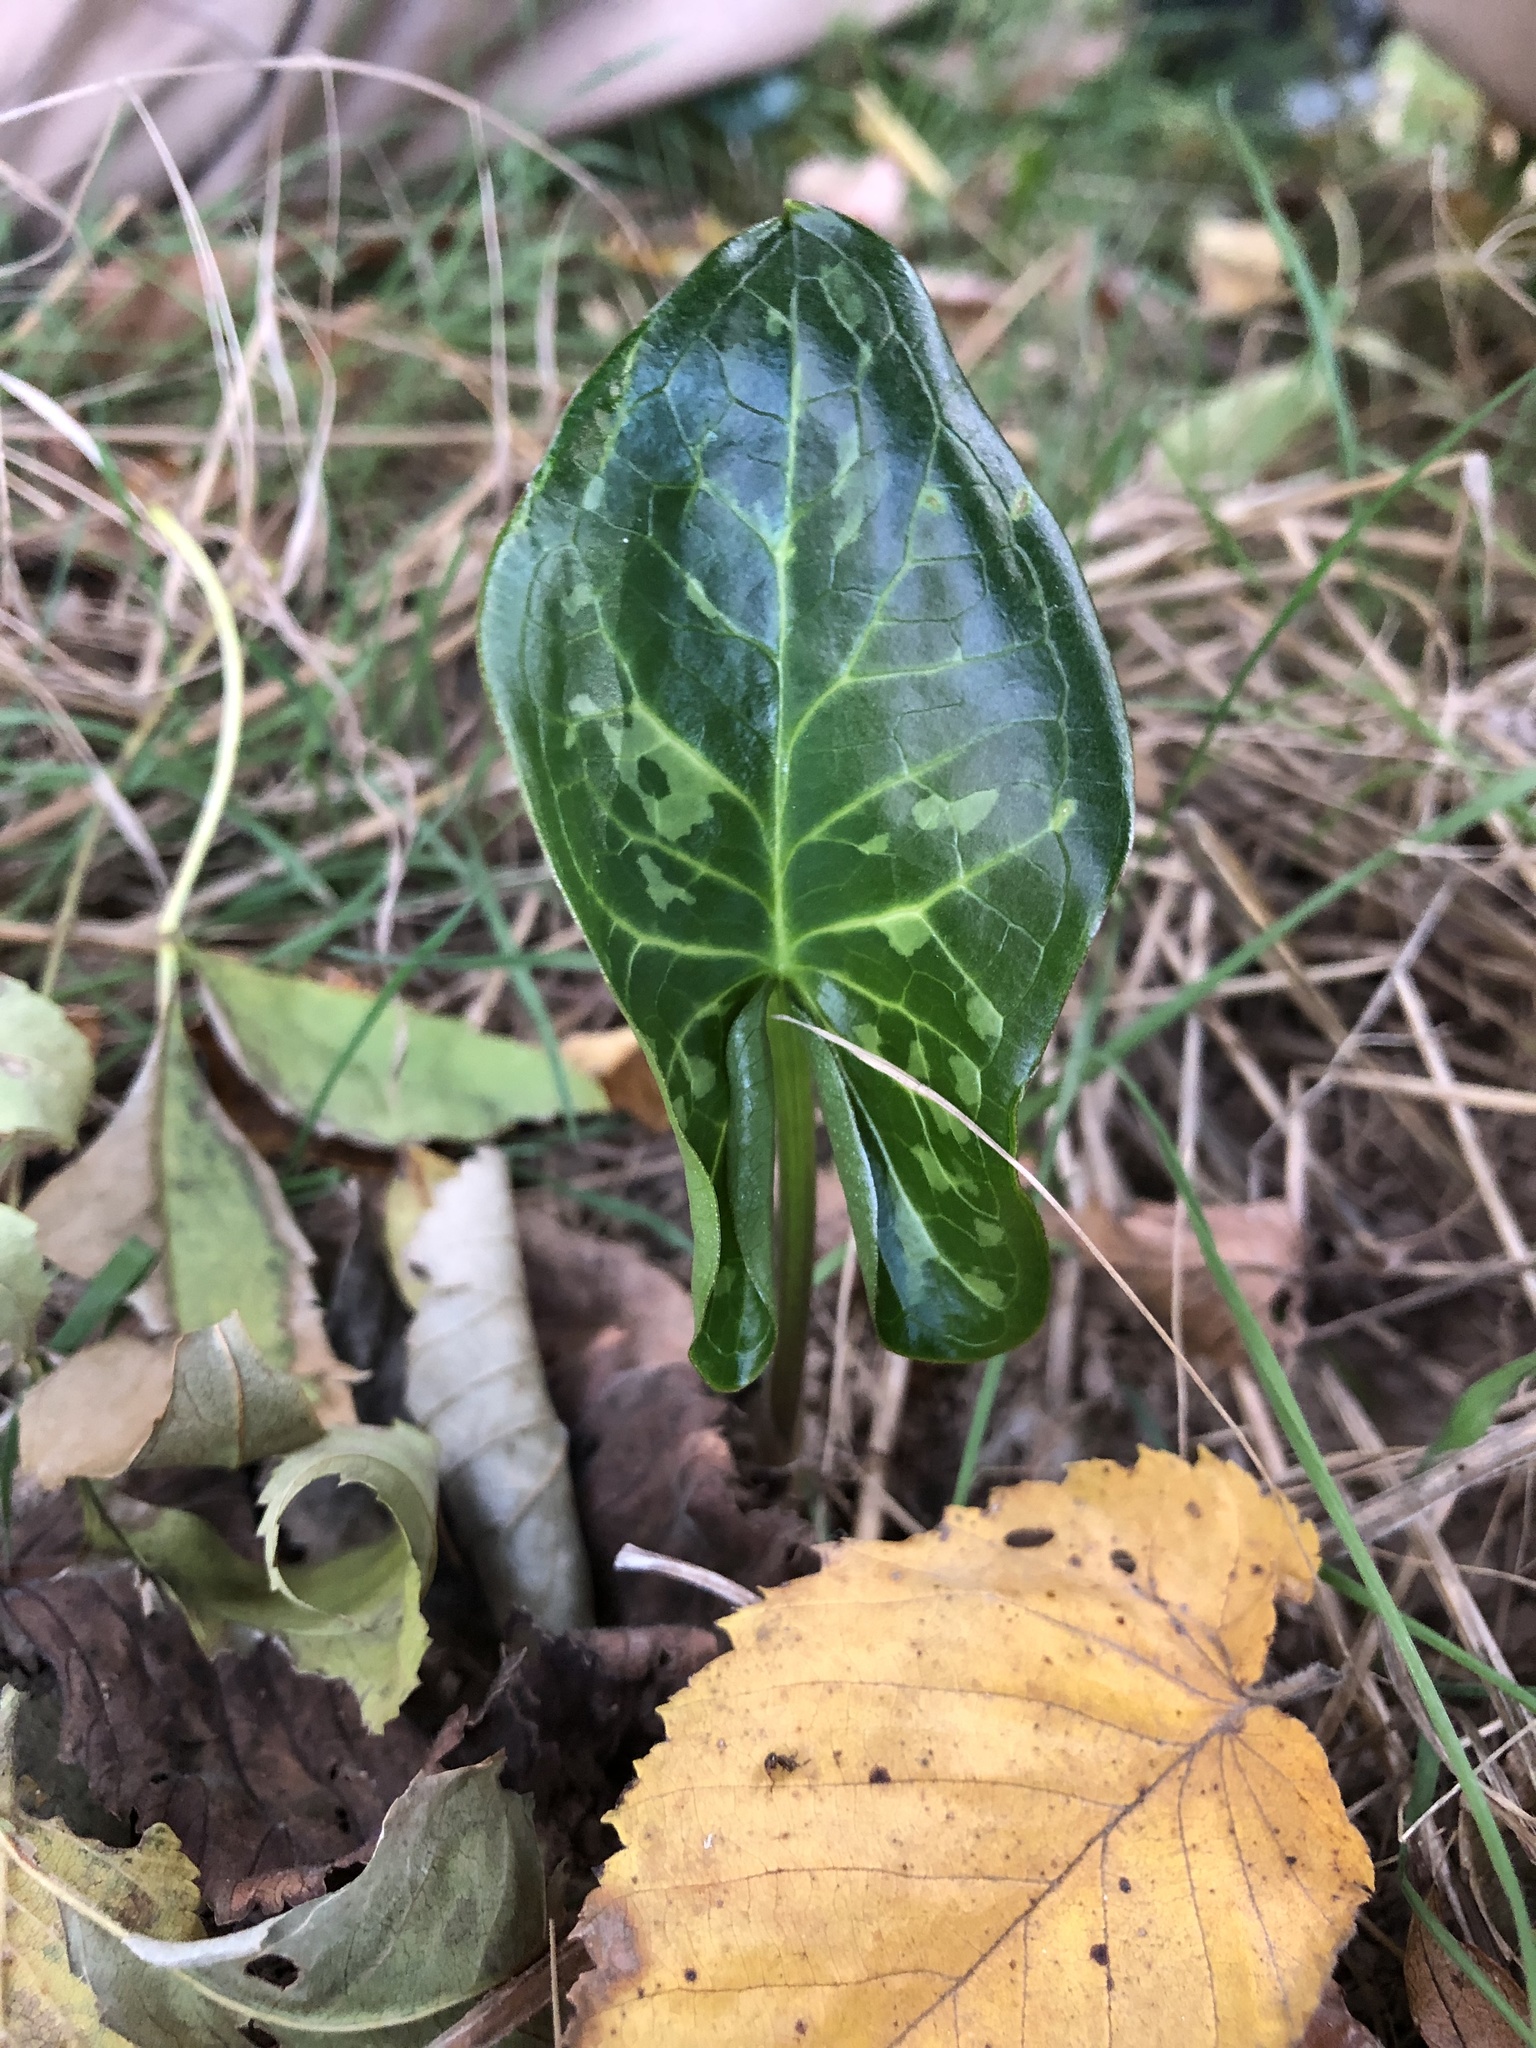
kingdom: Plantae
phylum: Tracheophyta
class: Liliopsida
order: Alismatales
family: Araceae
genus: Arum
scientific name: Arum italicum
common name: Italian lords-and-ladies
